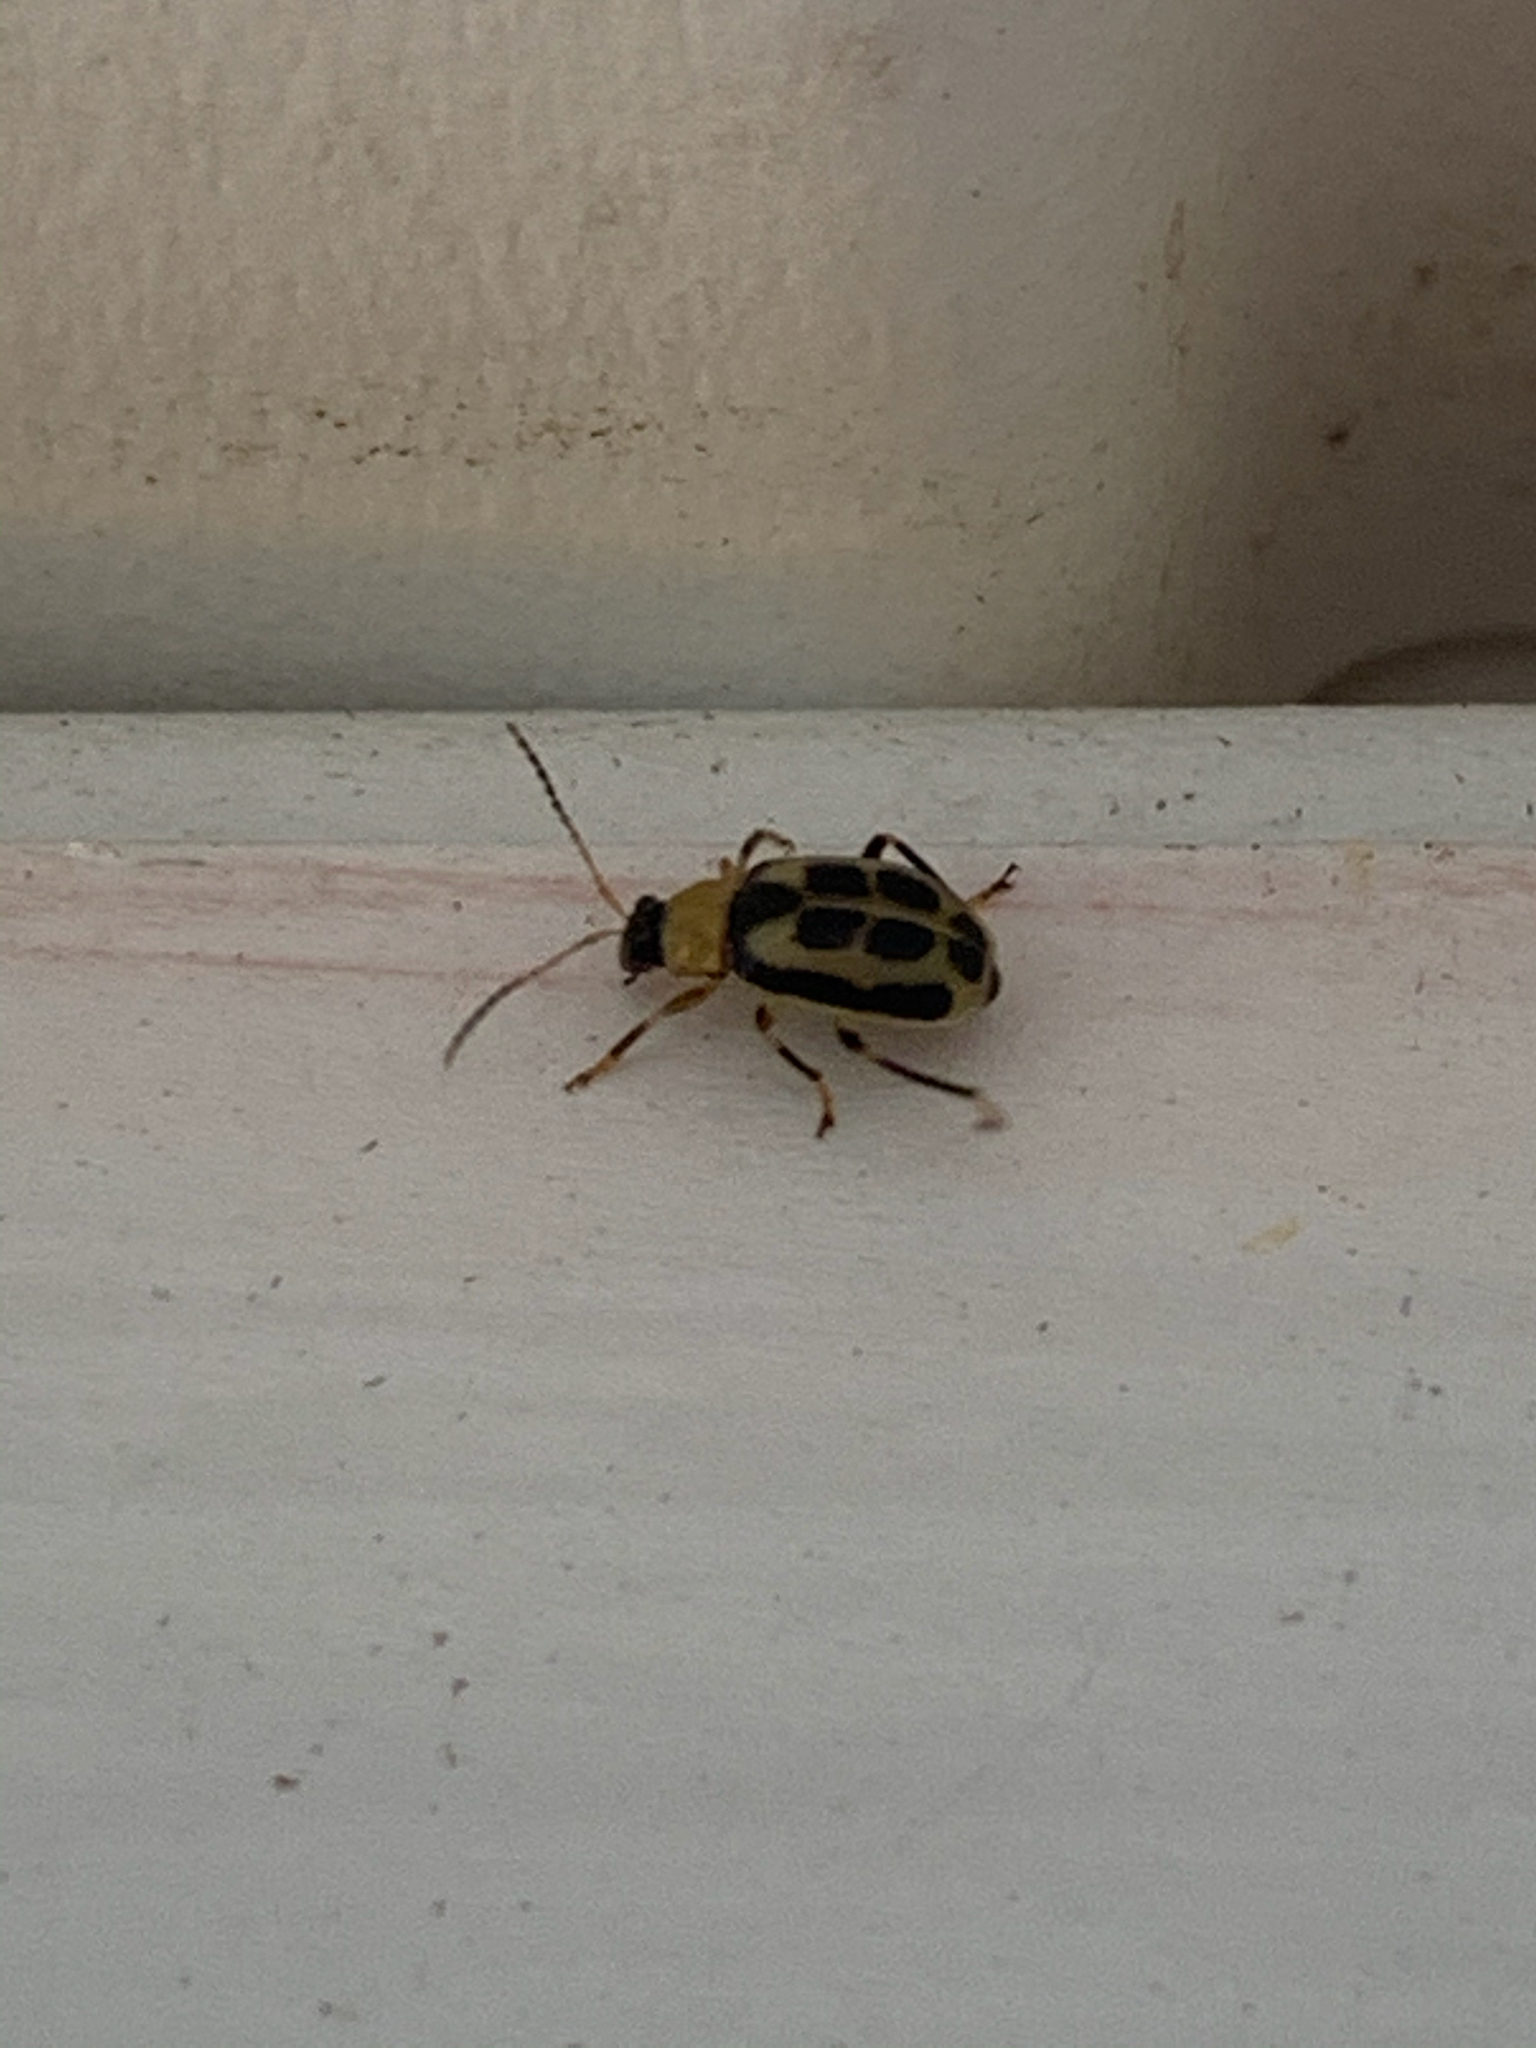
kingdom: Animalia
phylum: Arthropoda
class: Insecta
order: Coleoptera
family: Chrysomelidae
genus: Cerotoma
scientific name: Cerotoma trifurcata
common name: Bean leaf beetle
